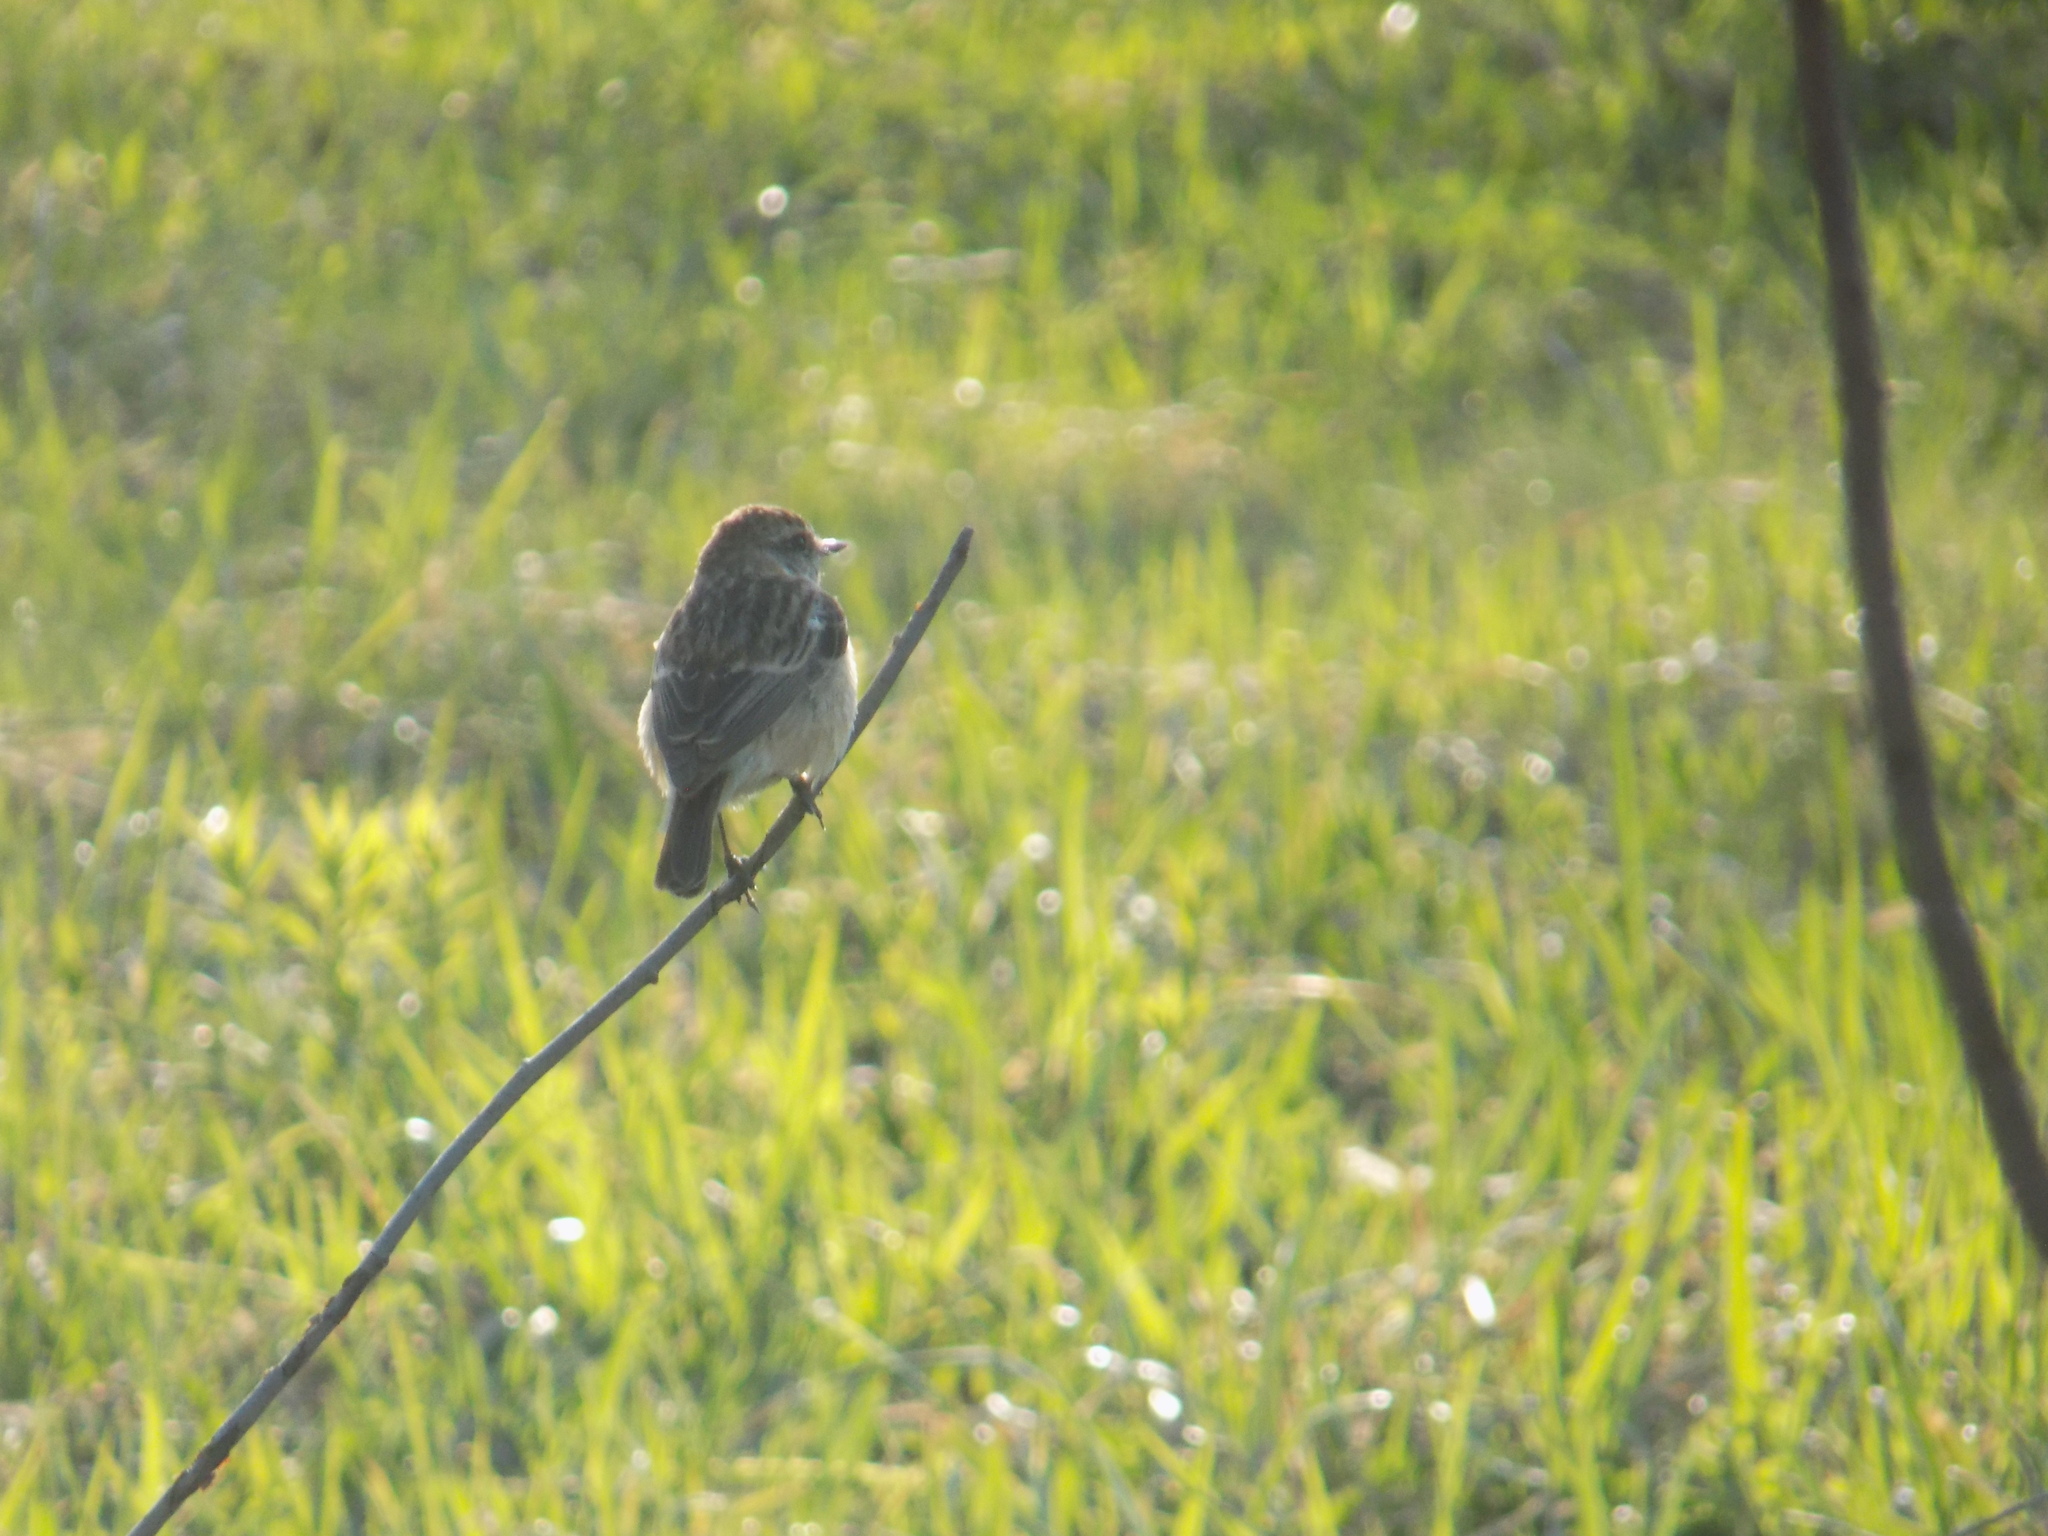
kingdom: Animalia
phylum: Chordata
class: Aves
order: Passeriformes
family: Muscicapidae
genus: Saxicola
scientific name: Saxicola maurus
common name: Siberian stonechat
